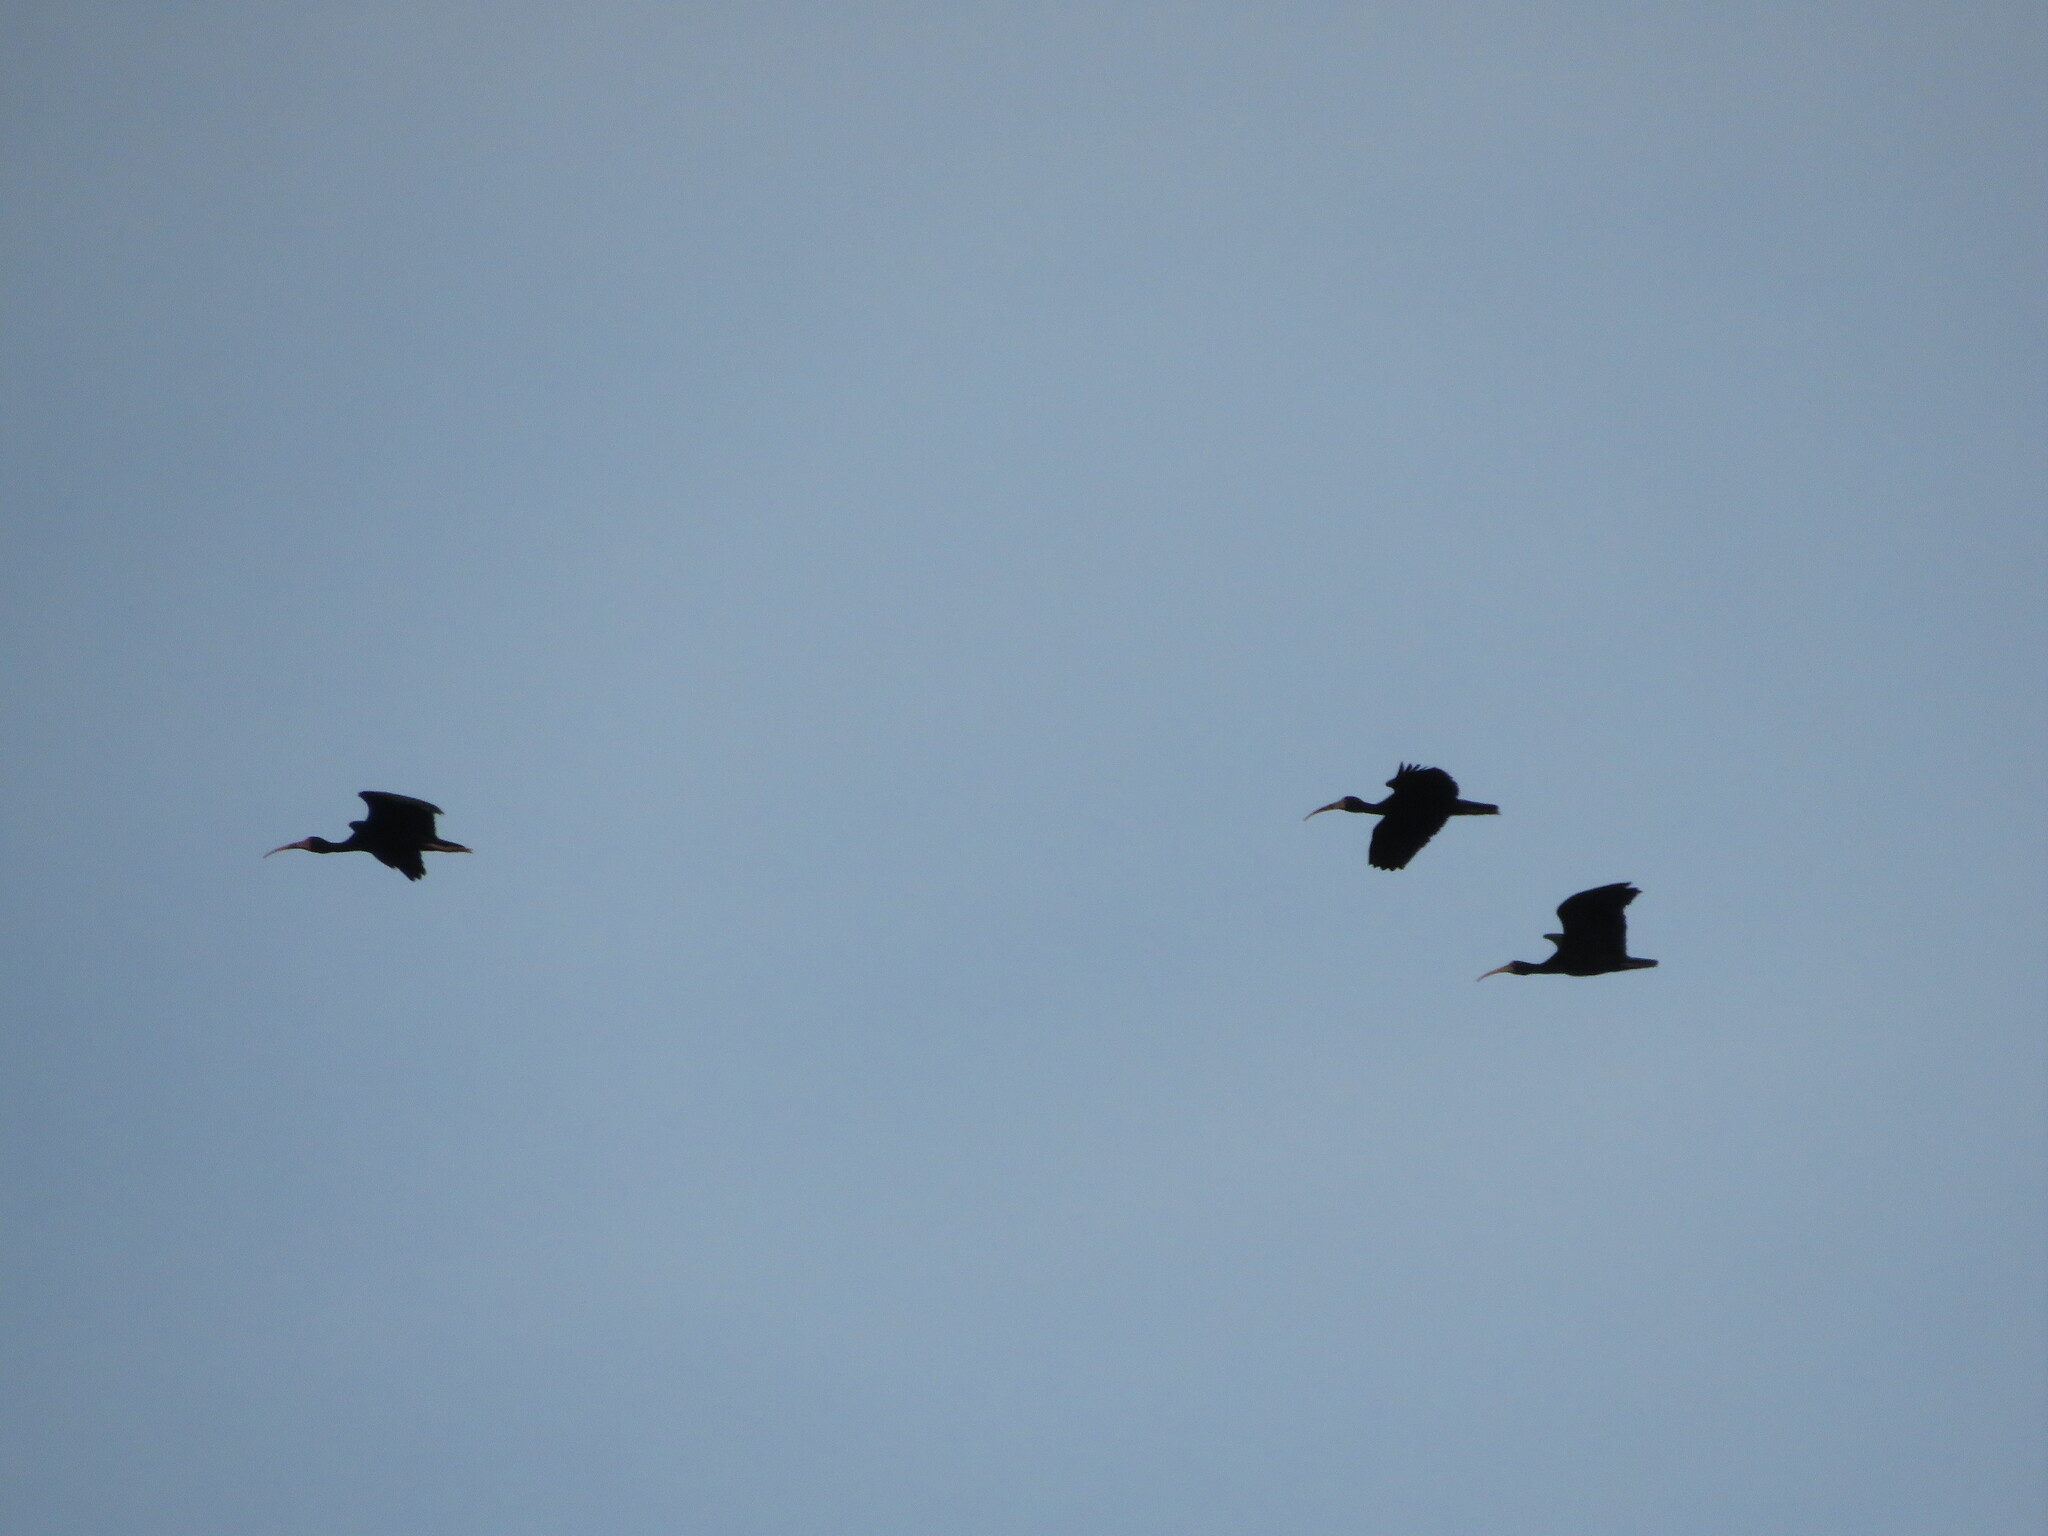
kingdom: Animalia
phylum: Chordata
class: Aves
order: Pelecaniformes
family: Threskiornithidae
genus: Phimosus
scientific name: Phimosus infuscatus
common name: Bare-faced ibis
